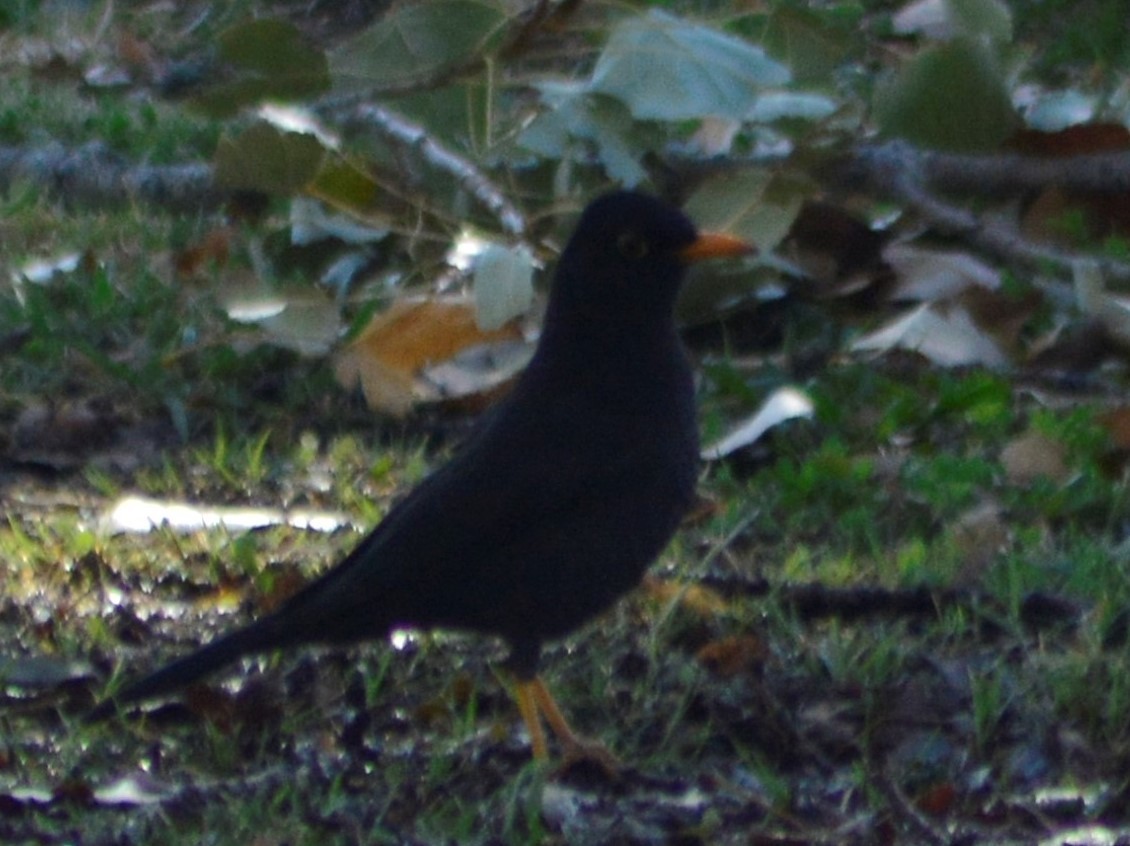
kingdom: Animalia
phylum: Chordata
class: Aves
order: Passeriformes
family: Turdidae
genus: Turdus
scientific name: Turdus chiguanco
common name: Chiguanco thrush
